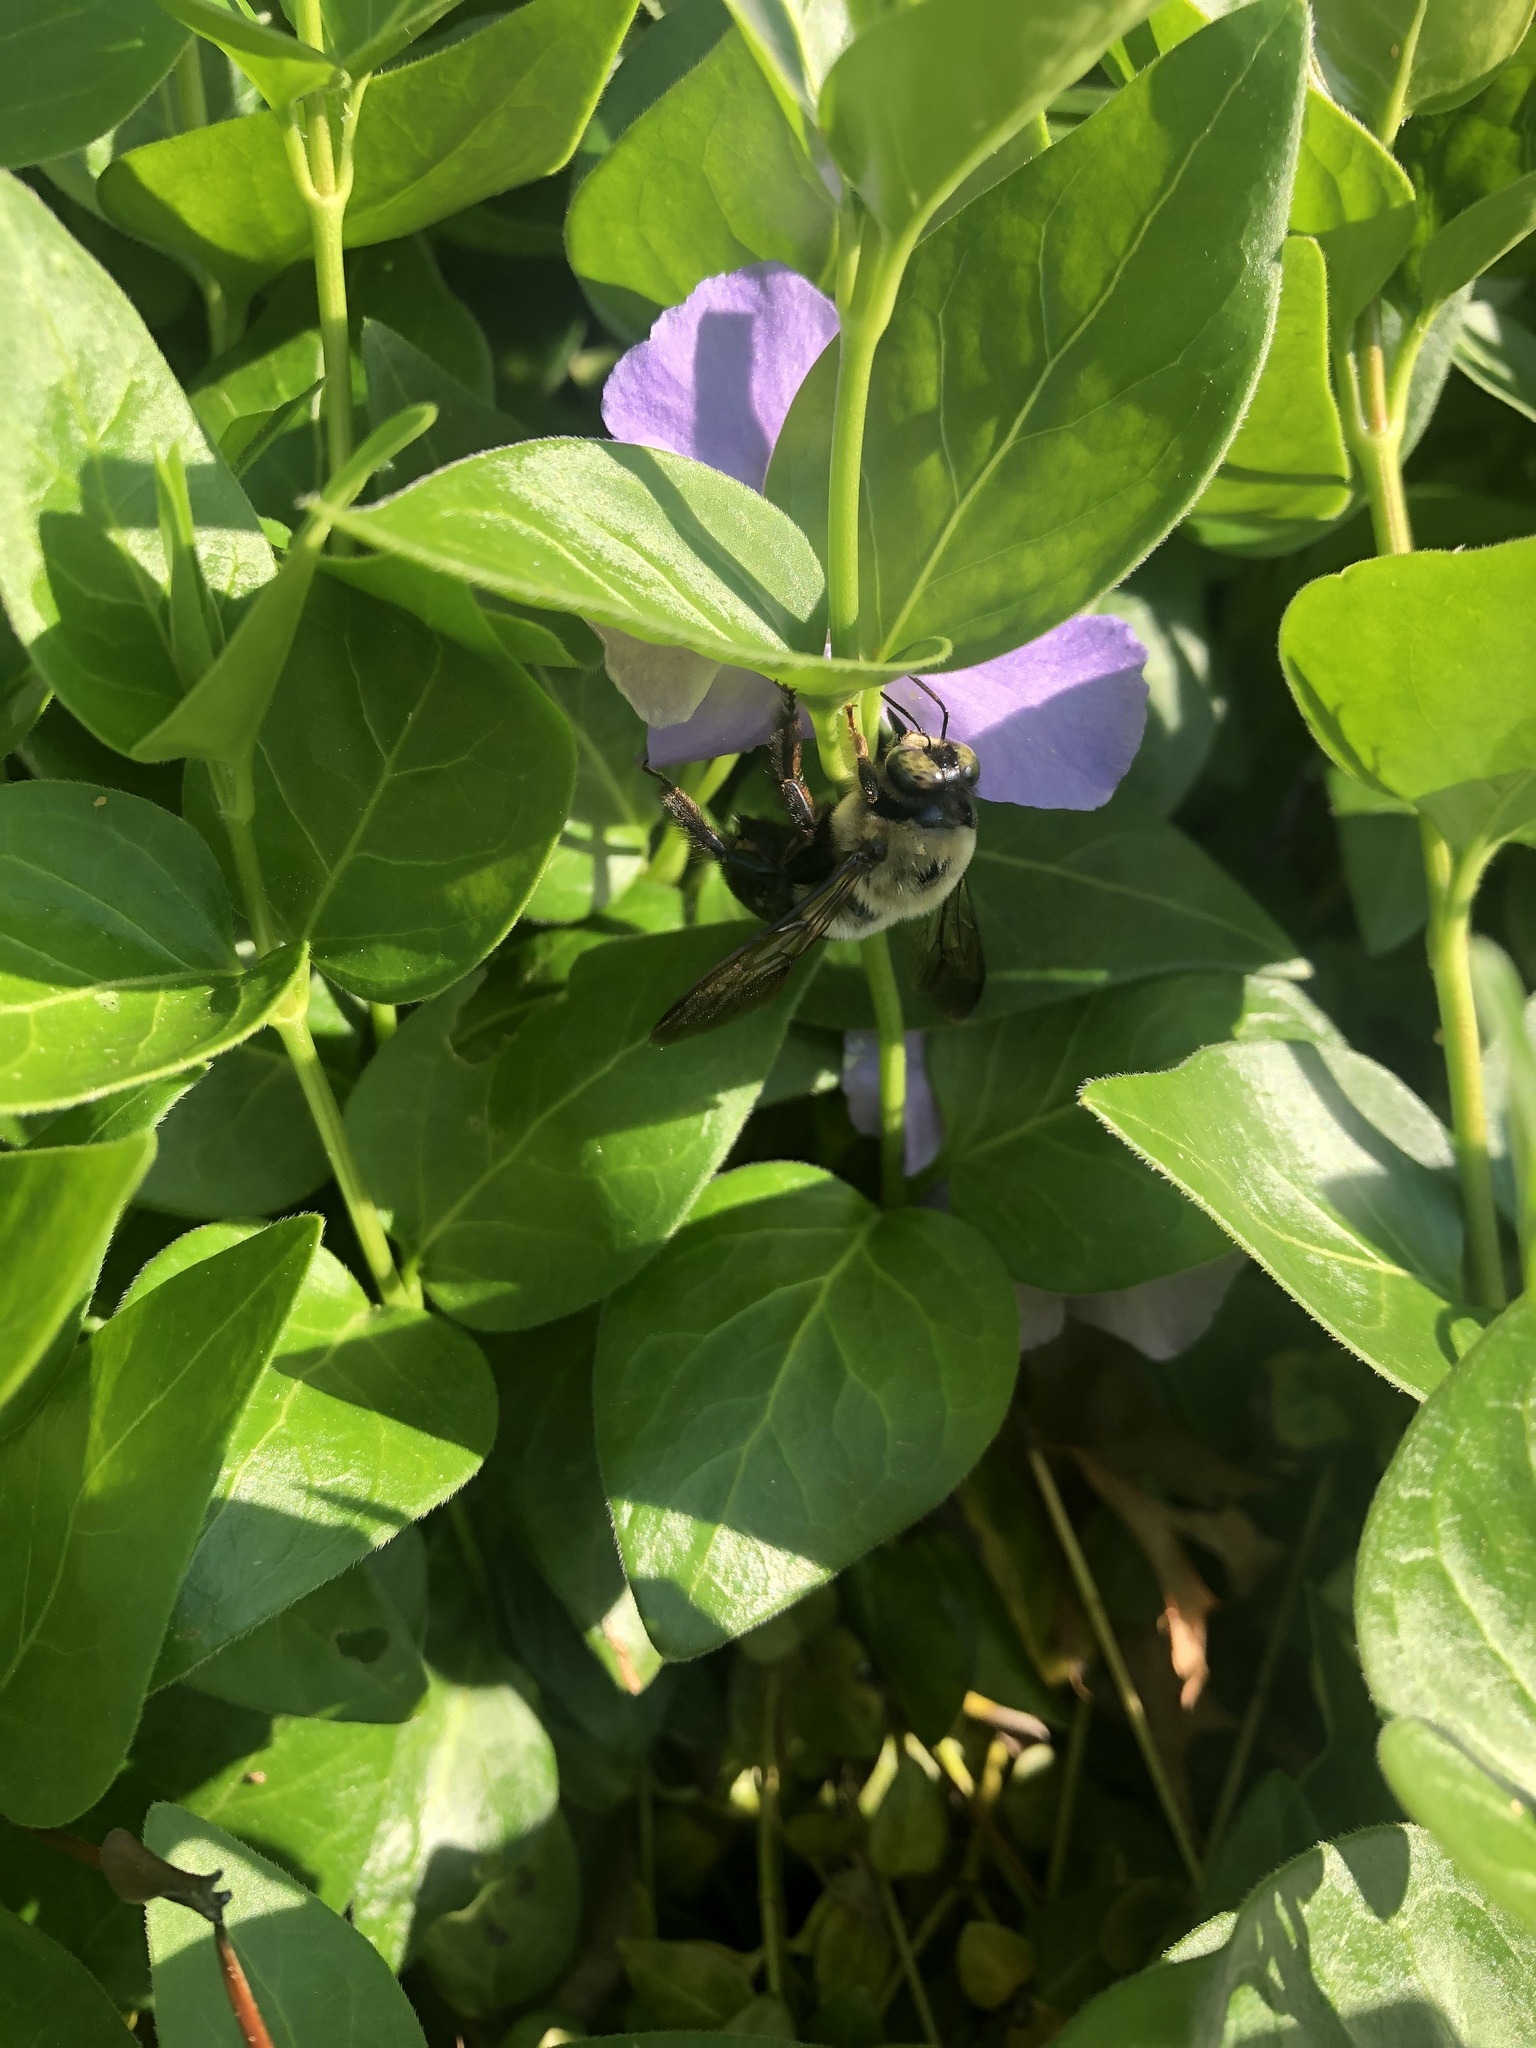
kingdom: Animalia
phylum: Arthropoda
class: Insecta
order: Hymenoptera
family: Apidae
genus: Xylocopa
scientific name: Xylocopa virginica
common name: Carpenter bee
